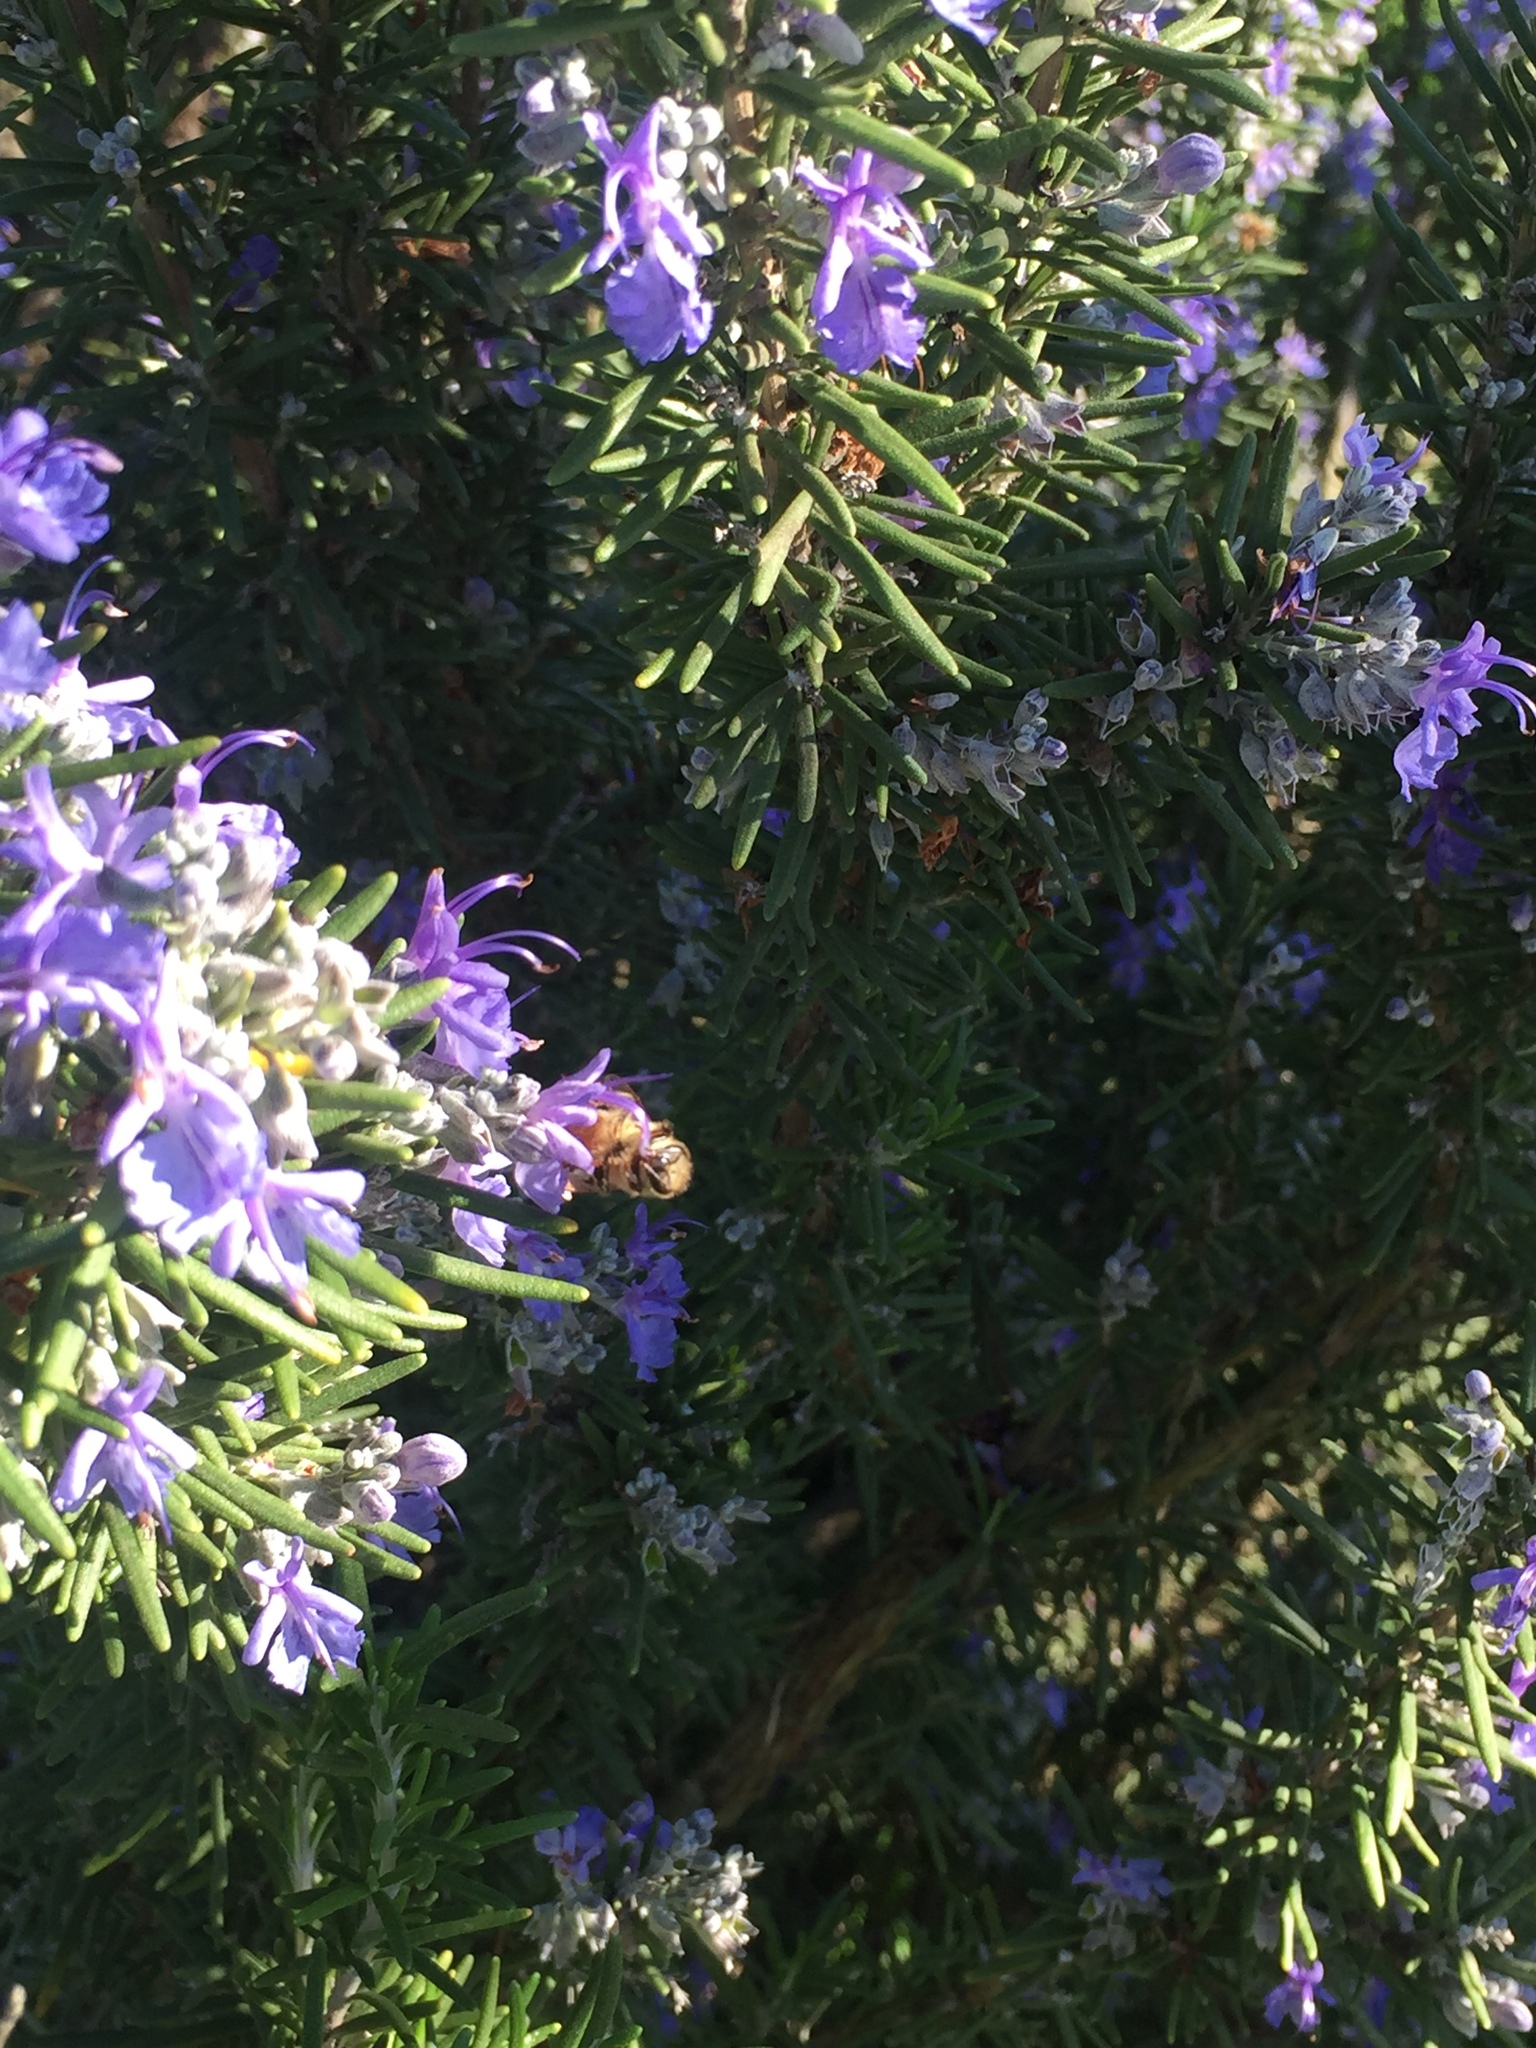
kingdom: Animalia
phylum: Arthropoda
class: Insecta
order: Hymenoptera
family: Apidae
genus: Apis
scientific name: Apis mellifera
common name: Honey bee
